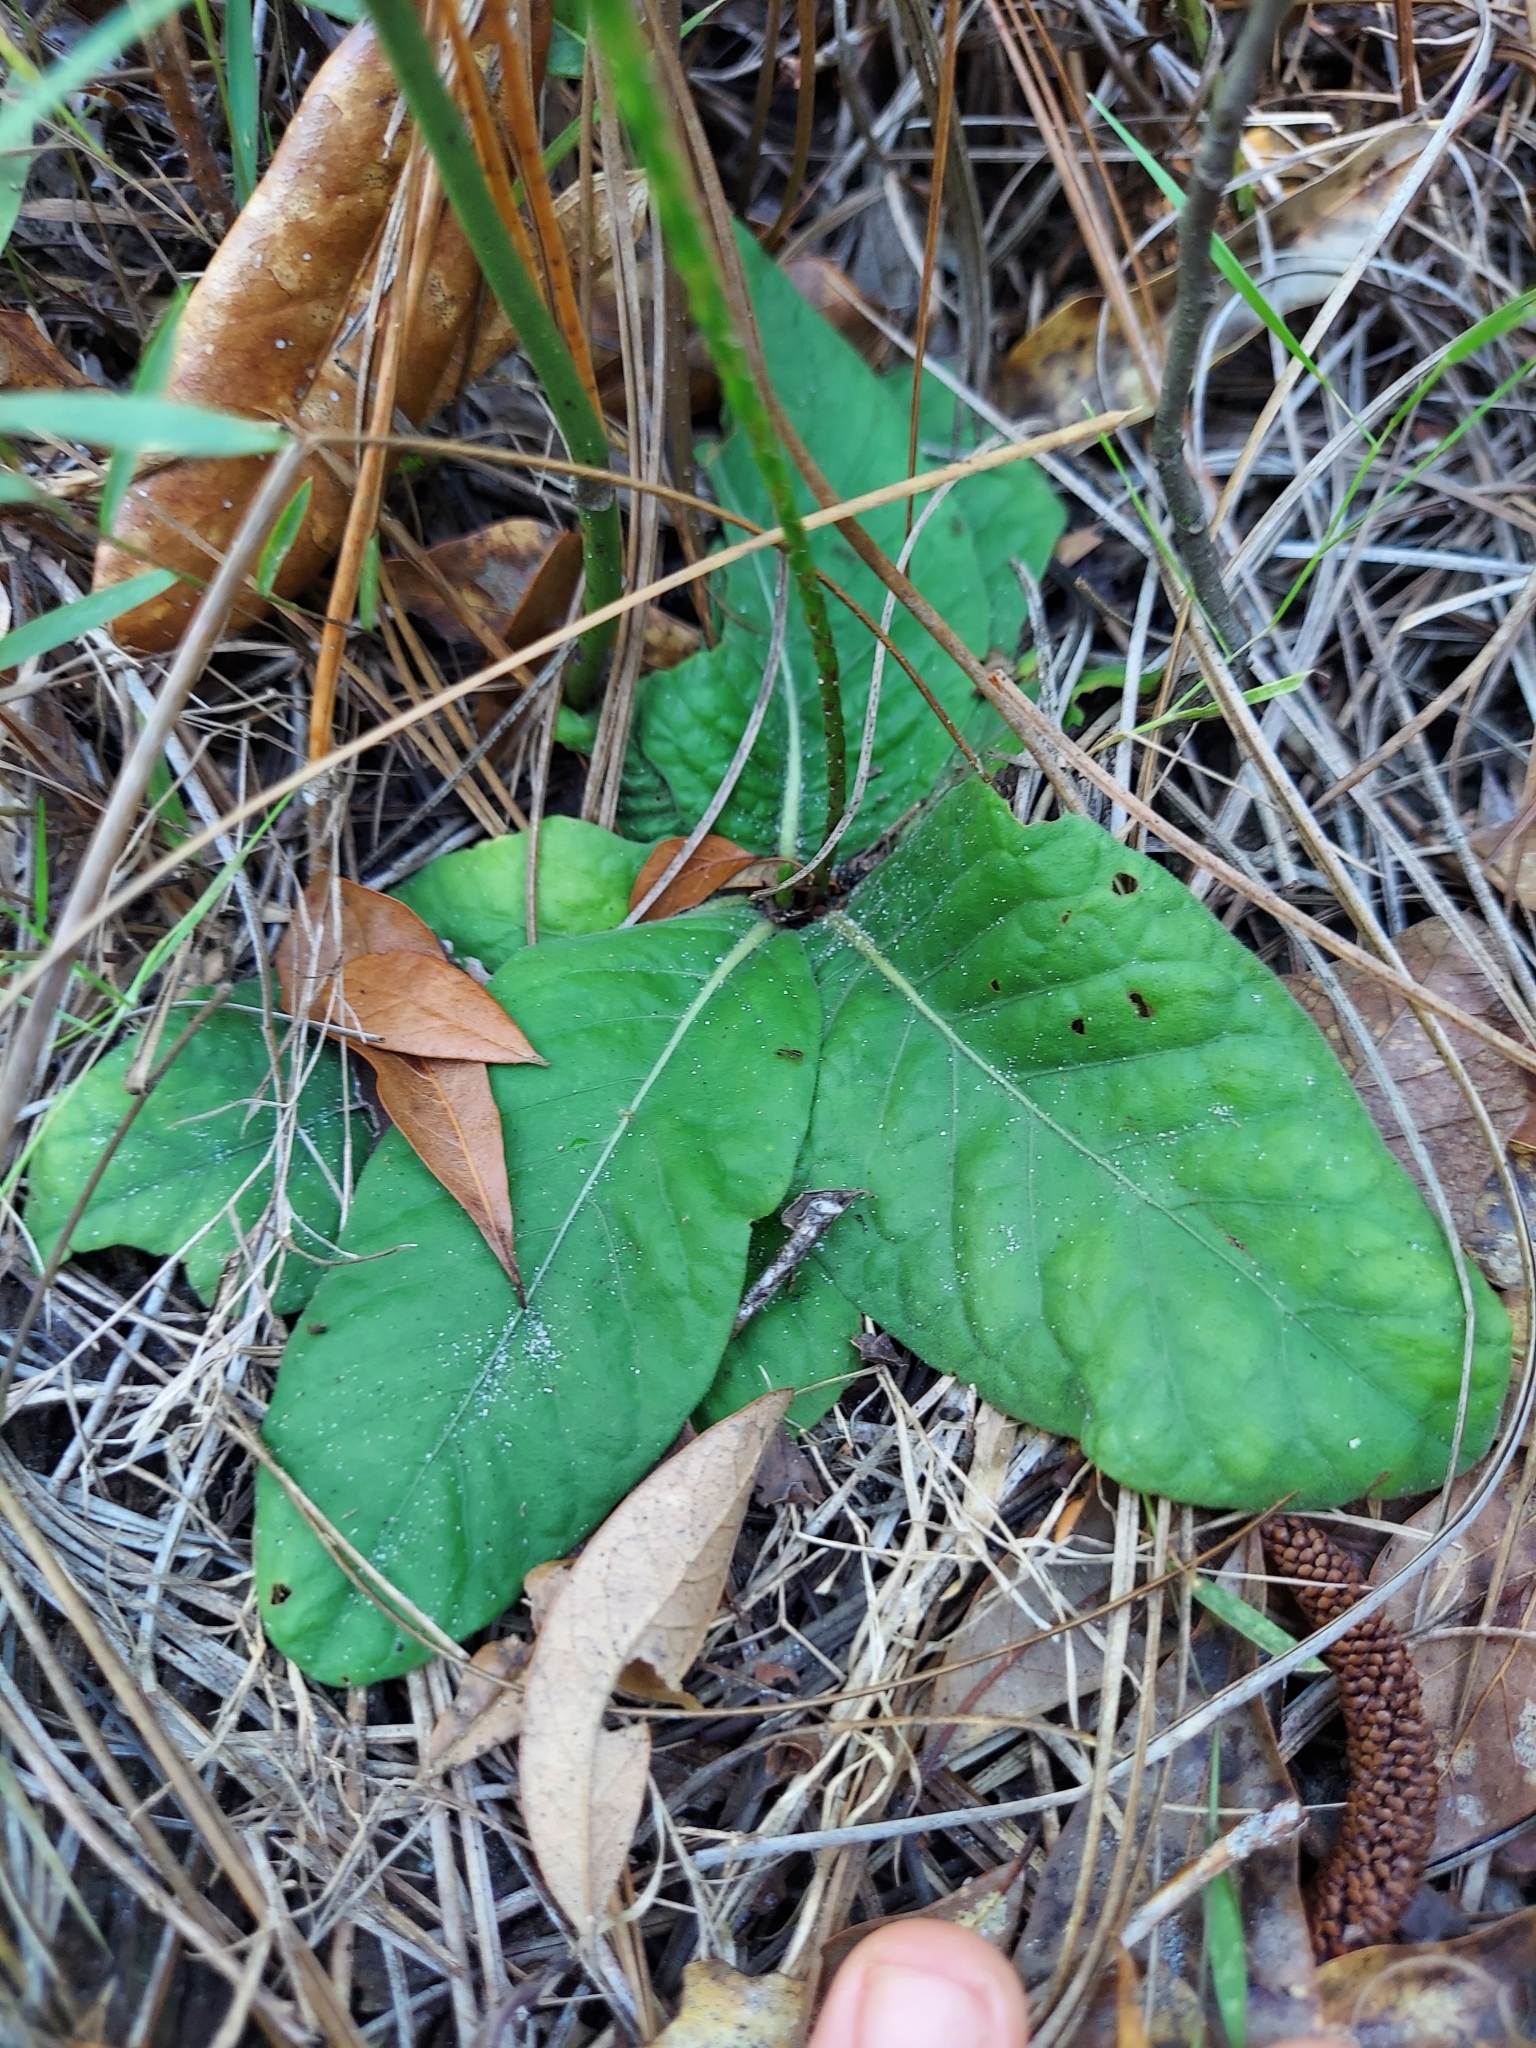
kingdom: Plantae
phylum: Tracheophyta
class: Magnoliopsida
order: Lamiales
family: Acanthaceae
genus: Elytraria
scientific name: Elytraria caroliniensis
